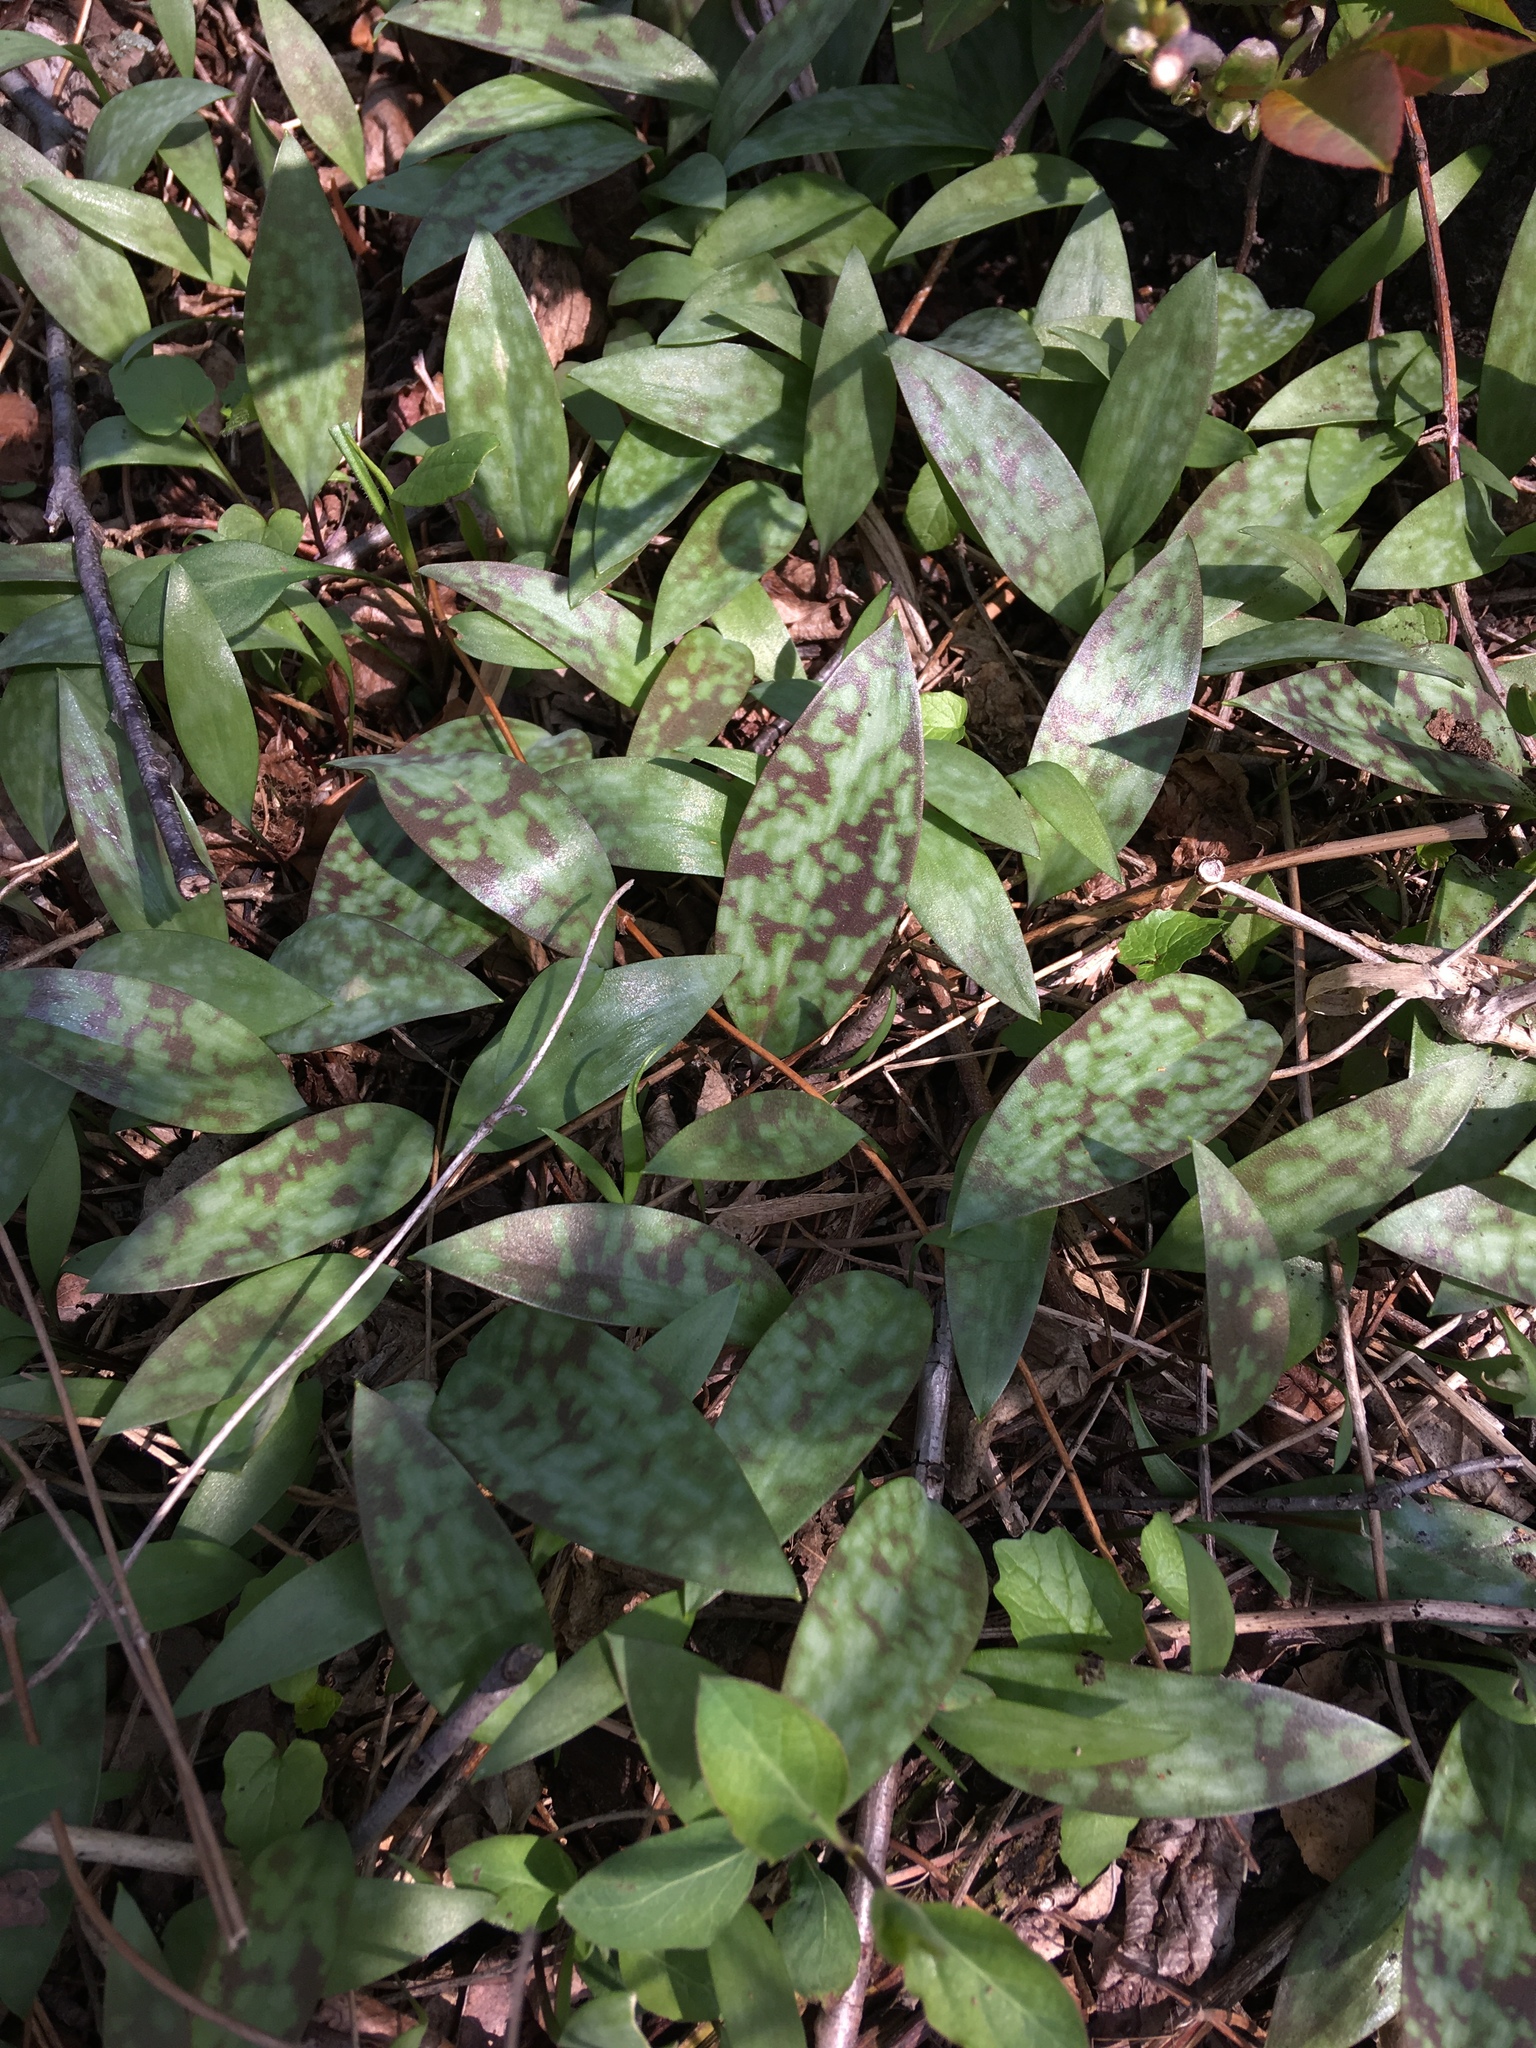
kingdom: Plantae
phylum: Tracheophyta
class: Liliopsida
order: Liliales
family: Liliaceae
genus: Erythronium
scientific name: Erythronium americanum
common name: Yellow adder's-tongue
